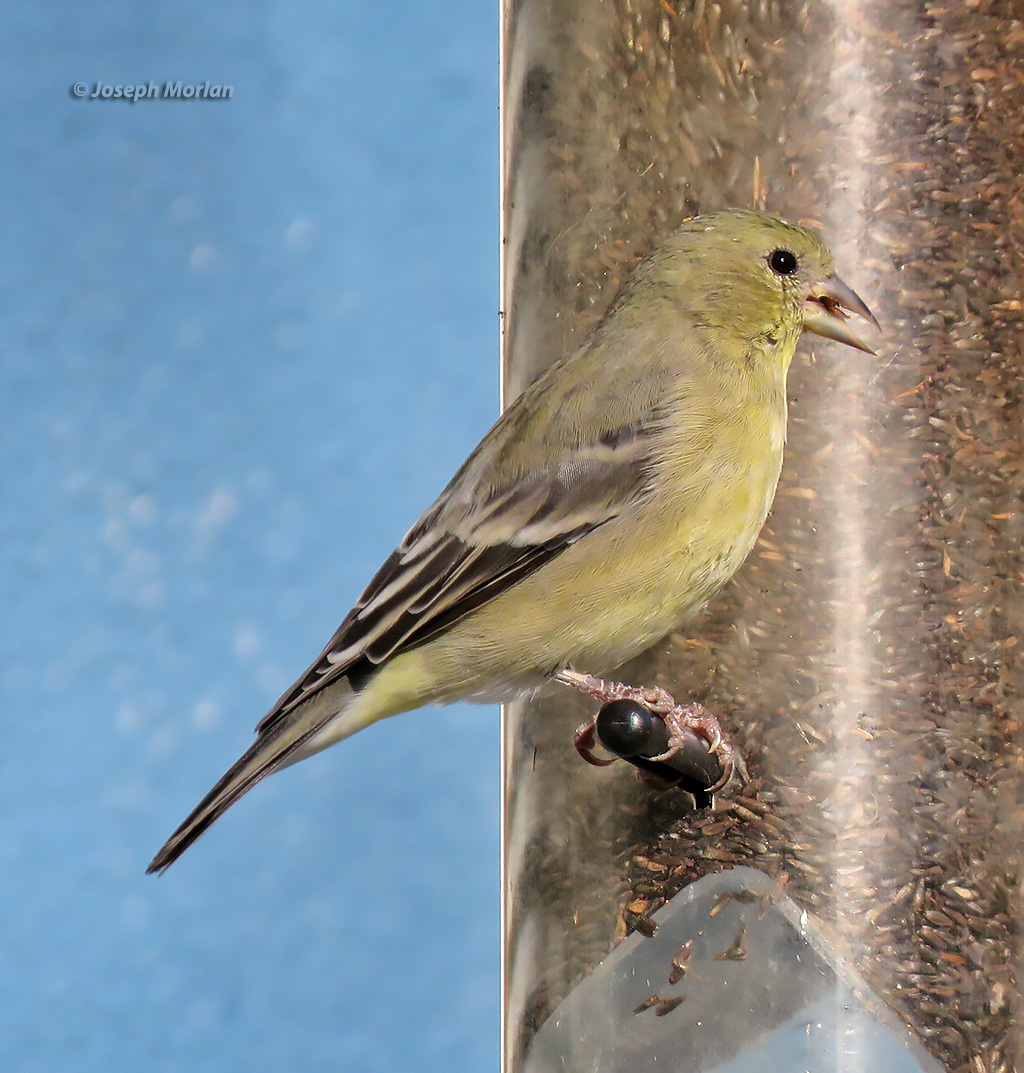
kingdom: Animalia
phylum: Chordata
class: Aves
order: Passeriformes
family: Fringillidae
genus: Spinus
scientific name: Spinus psaltria
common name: Lesser goldfinch
